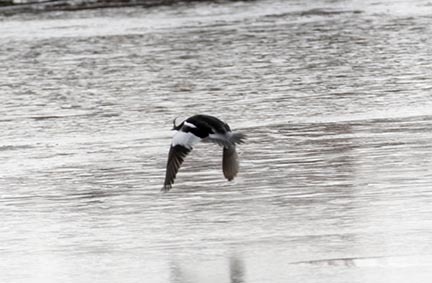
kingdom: Animalia
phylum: Chordata
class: Aves
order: Anseriformes
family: Anatidae
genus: Bucephala
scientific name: Bucephala albeola
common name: Bufflehead
